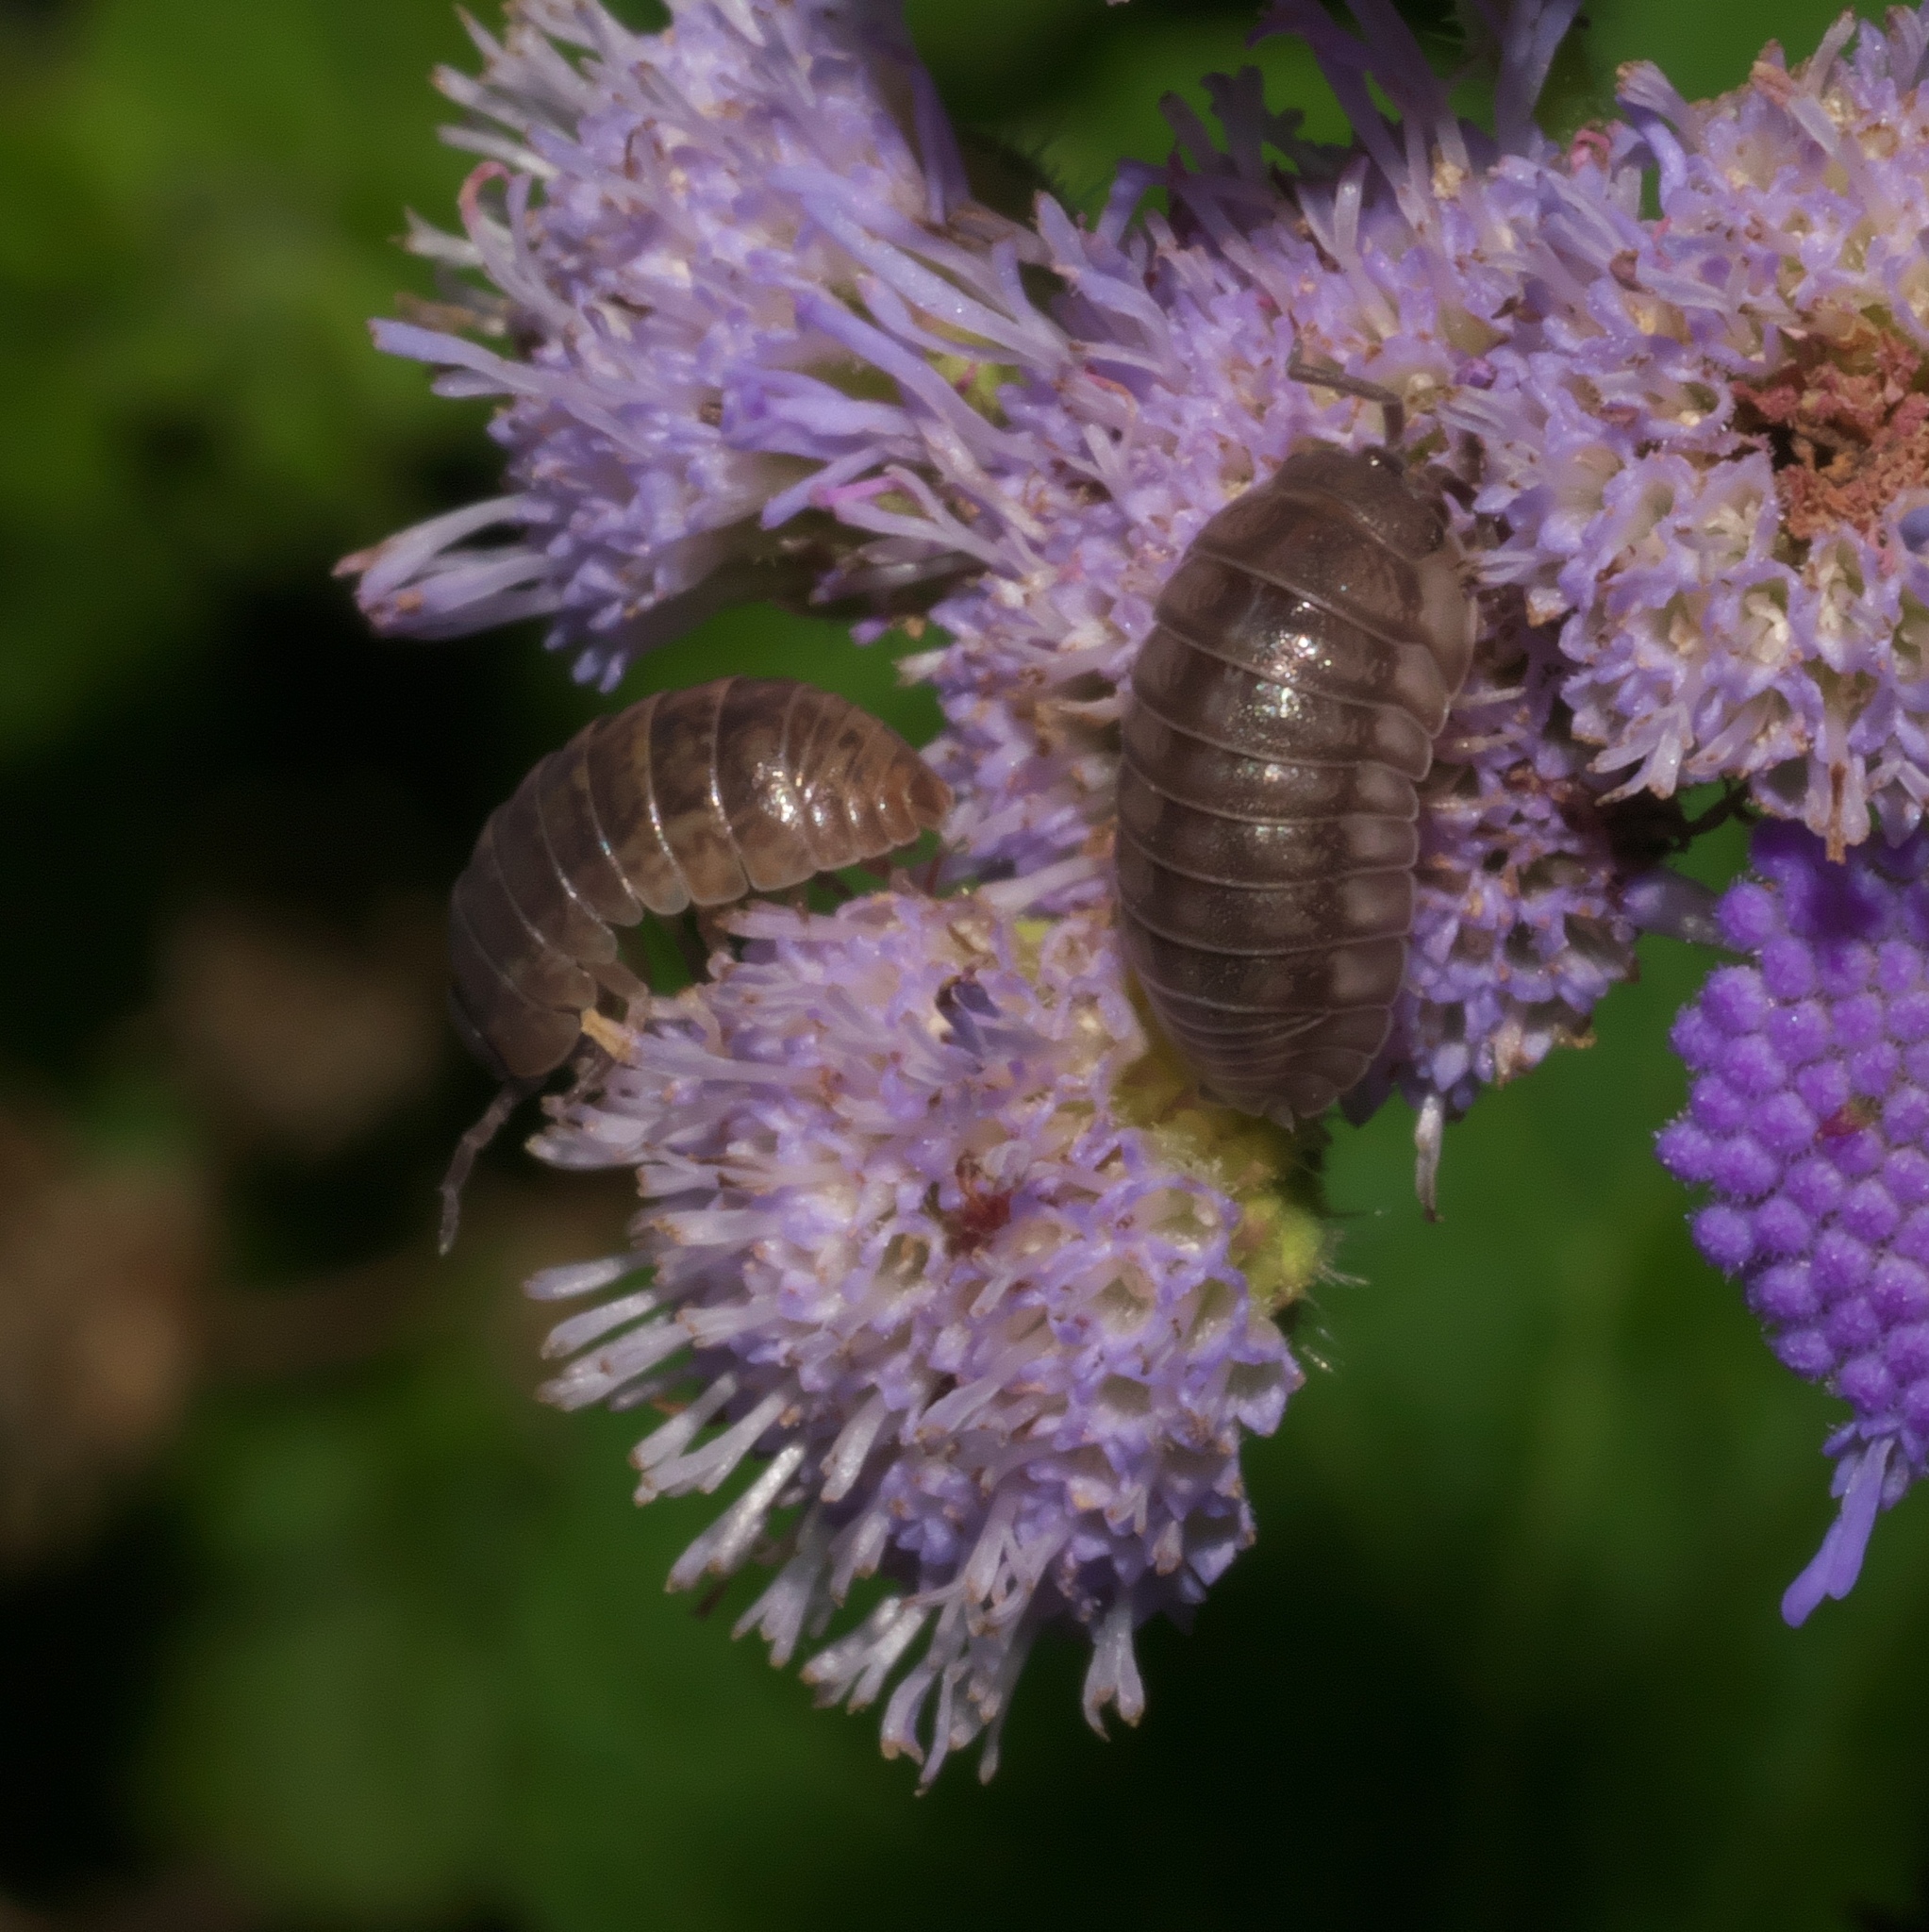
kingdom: Animalia
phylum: Arthropoda
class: Malacostraca
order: Isopoda
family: Armadillidiidae
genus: Armadillidium
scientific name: Armadillidium nasatum
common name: Isopod
